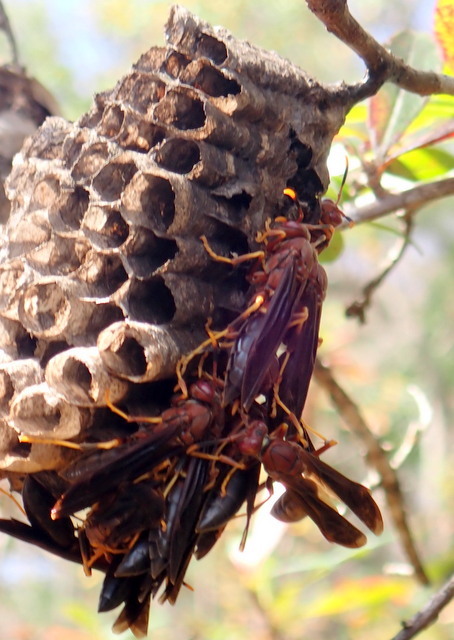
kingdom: Animalia
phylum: Arthropoda
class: Insecta
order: Hymenoptera
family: Eumenidae
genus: Polistes
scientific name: Polistes annularis
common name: Ringed paper wasp
